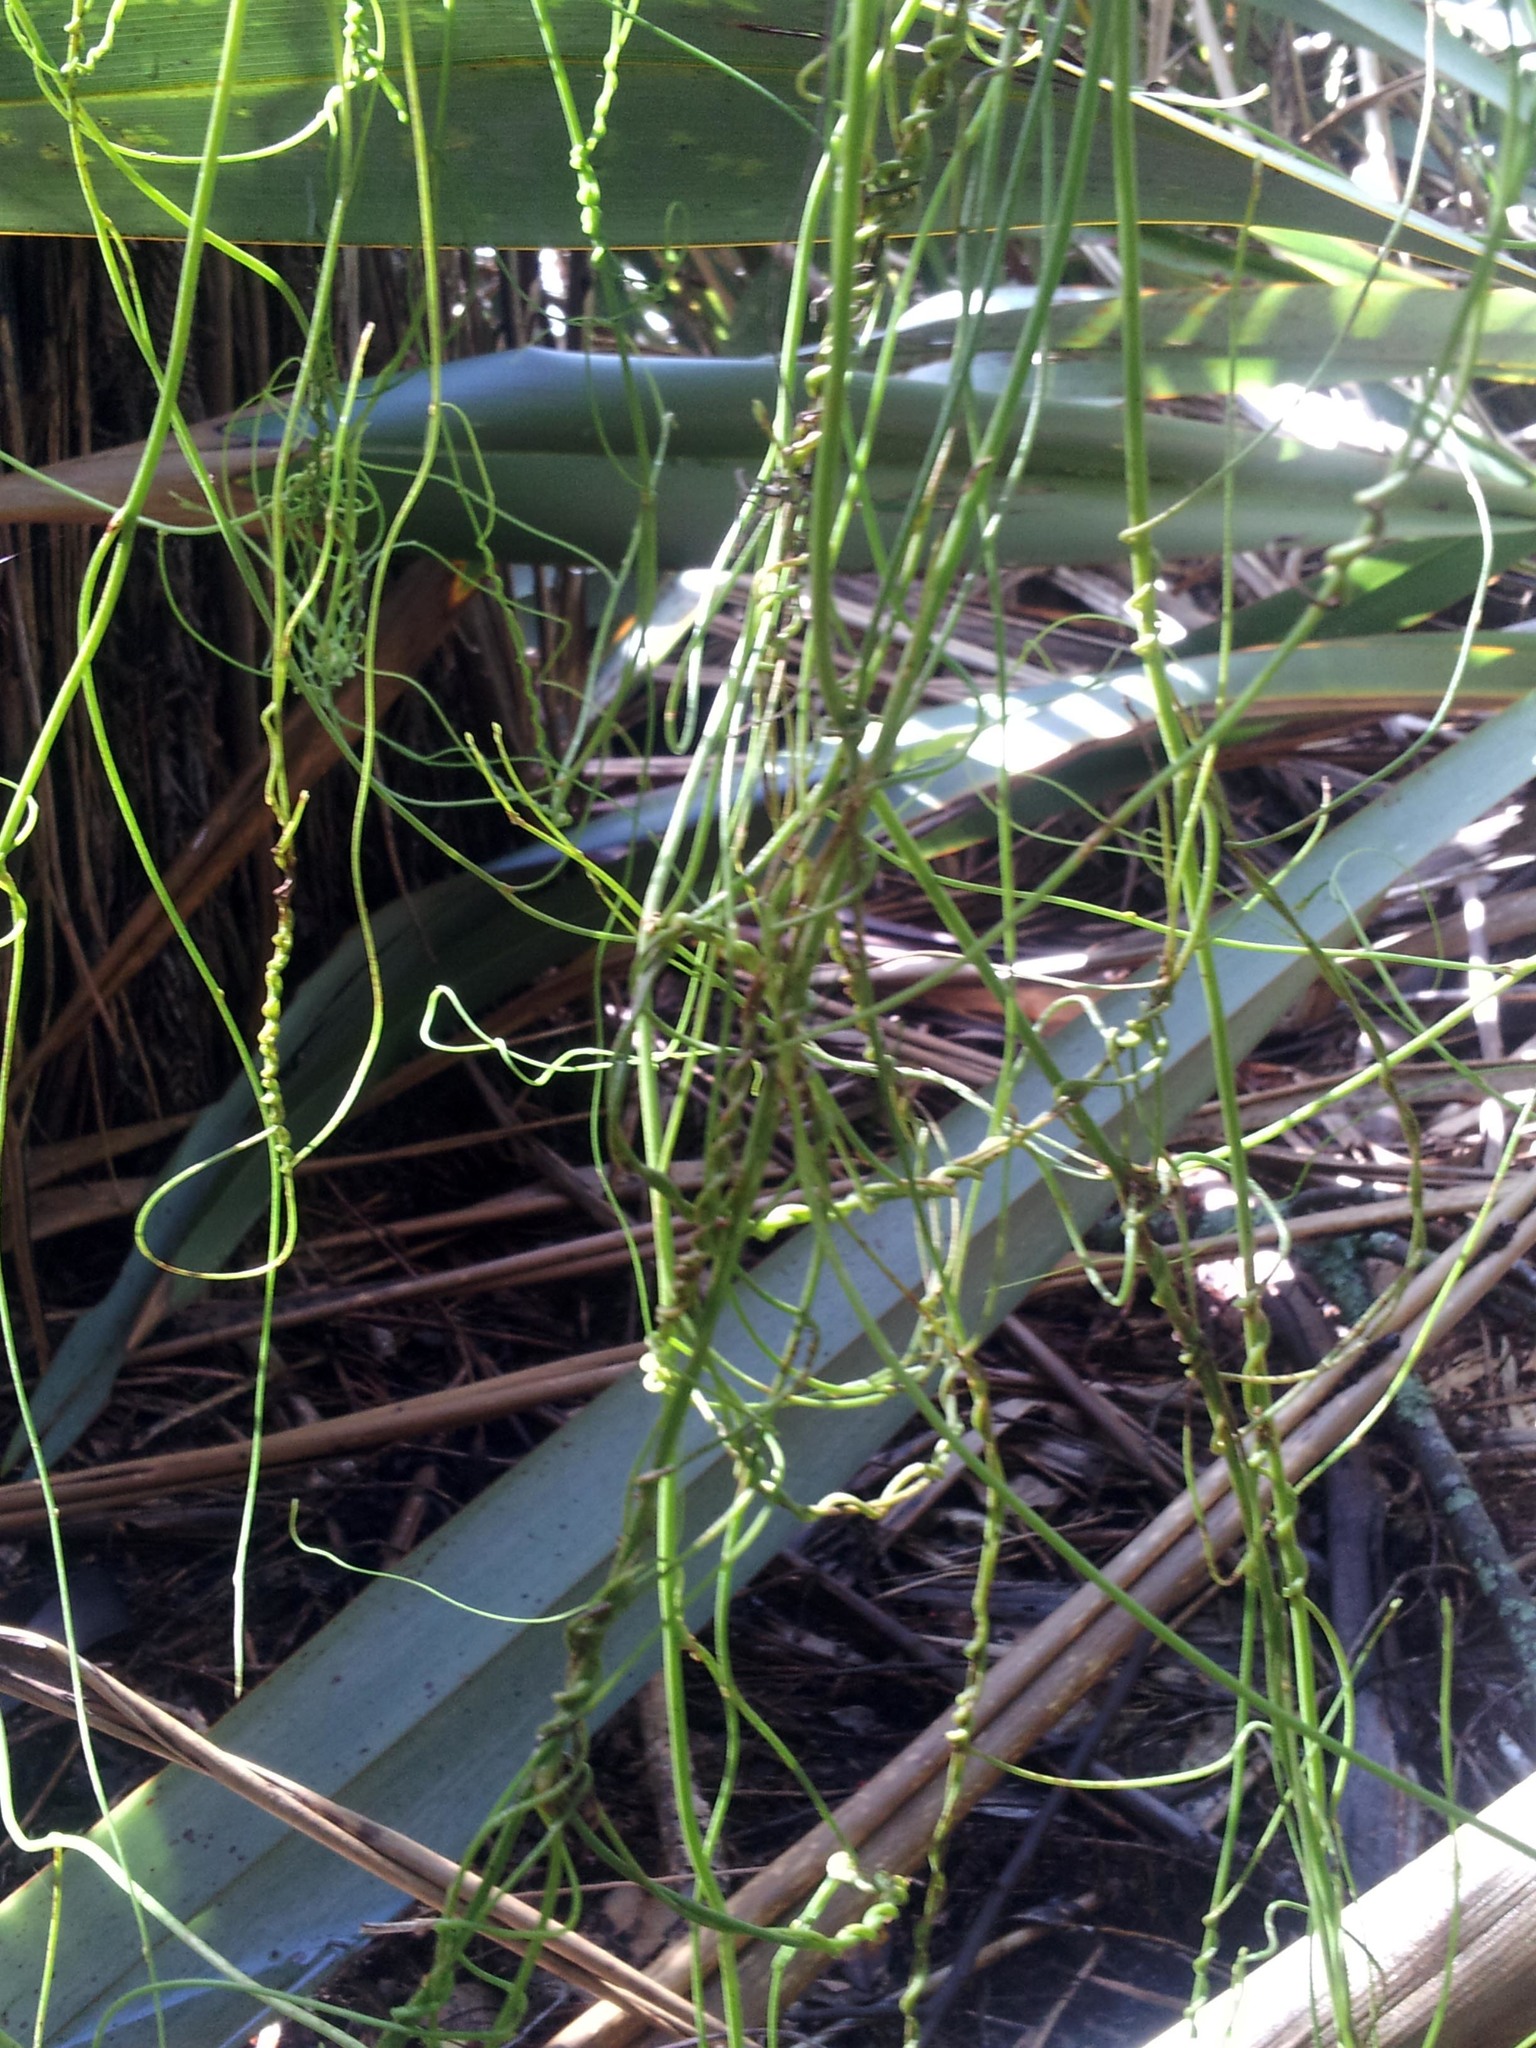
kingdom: Plantae
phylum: Tracheophyta
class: Magnoliopsida
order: Laurales
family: Lauraceae
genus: Cassytha
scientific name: Cassytha paniculata
